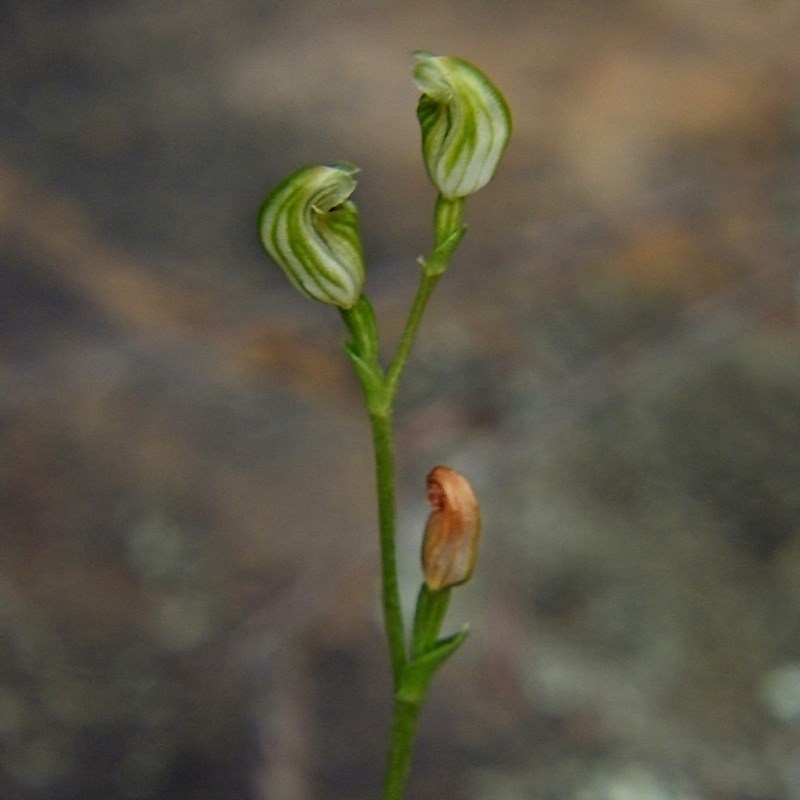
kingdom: Plantae
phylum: Tracheophyta
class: Liliopsida
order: Asparagales
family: Orchidaceae
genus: Pterostylis
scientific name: Pterostylis parviflora
